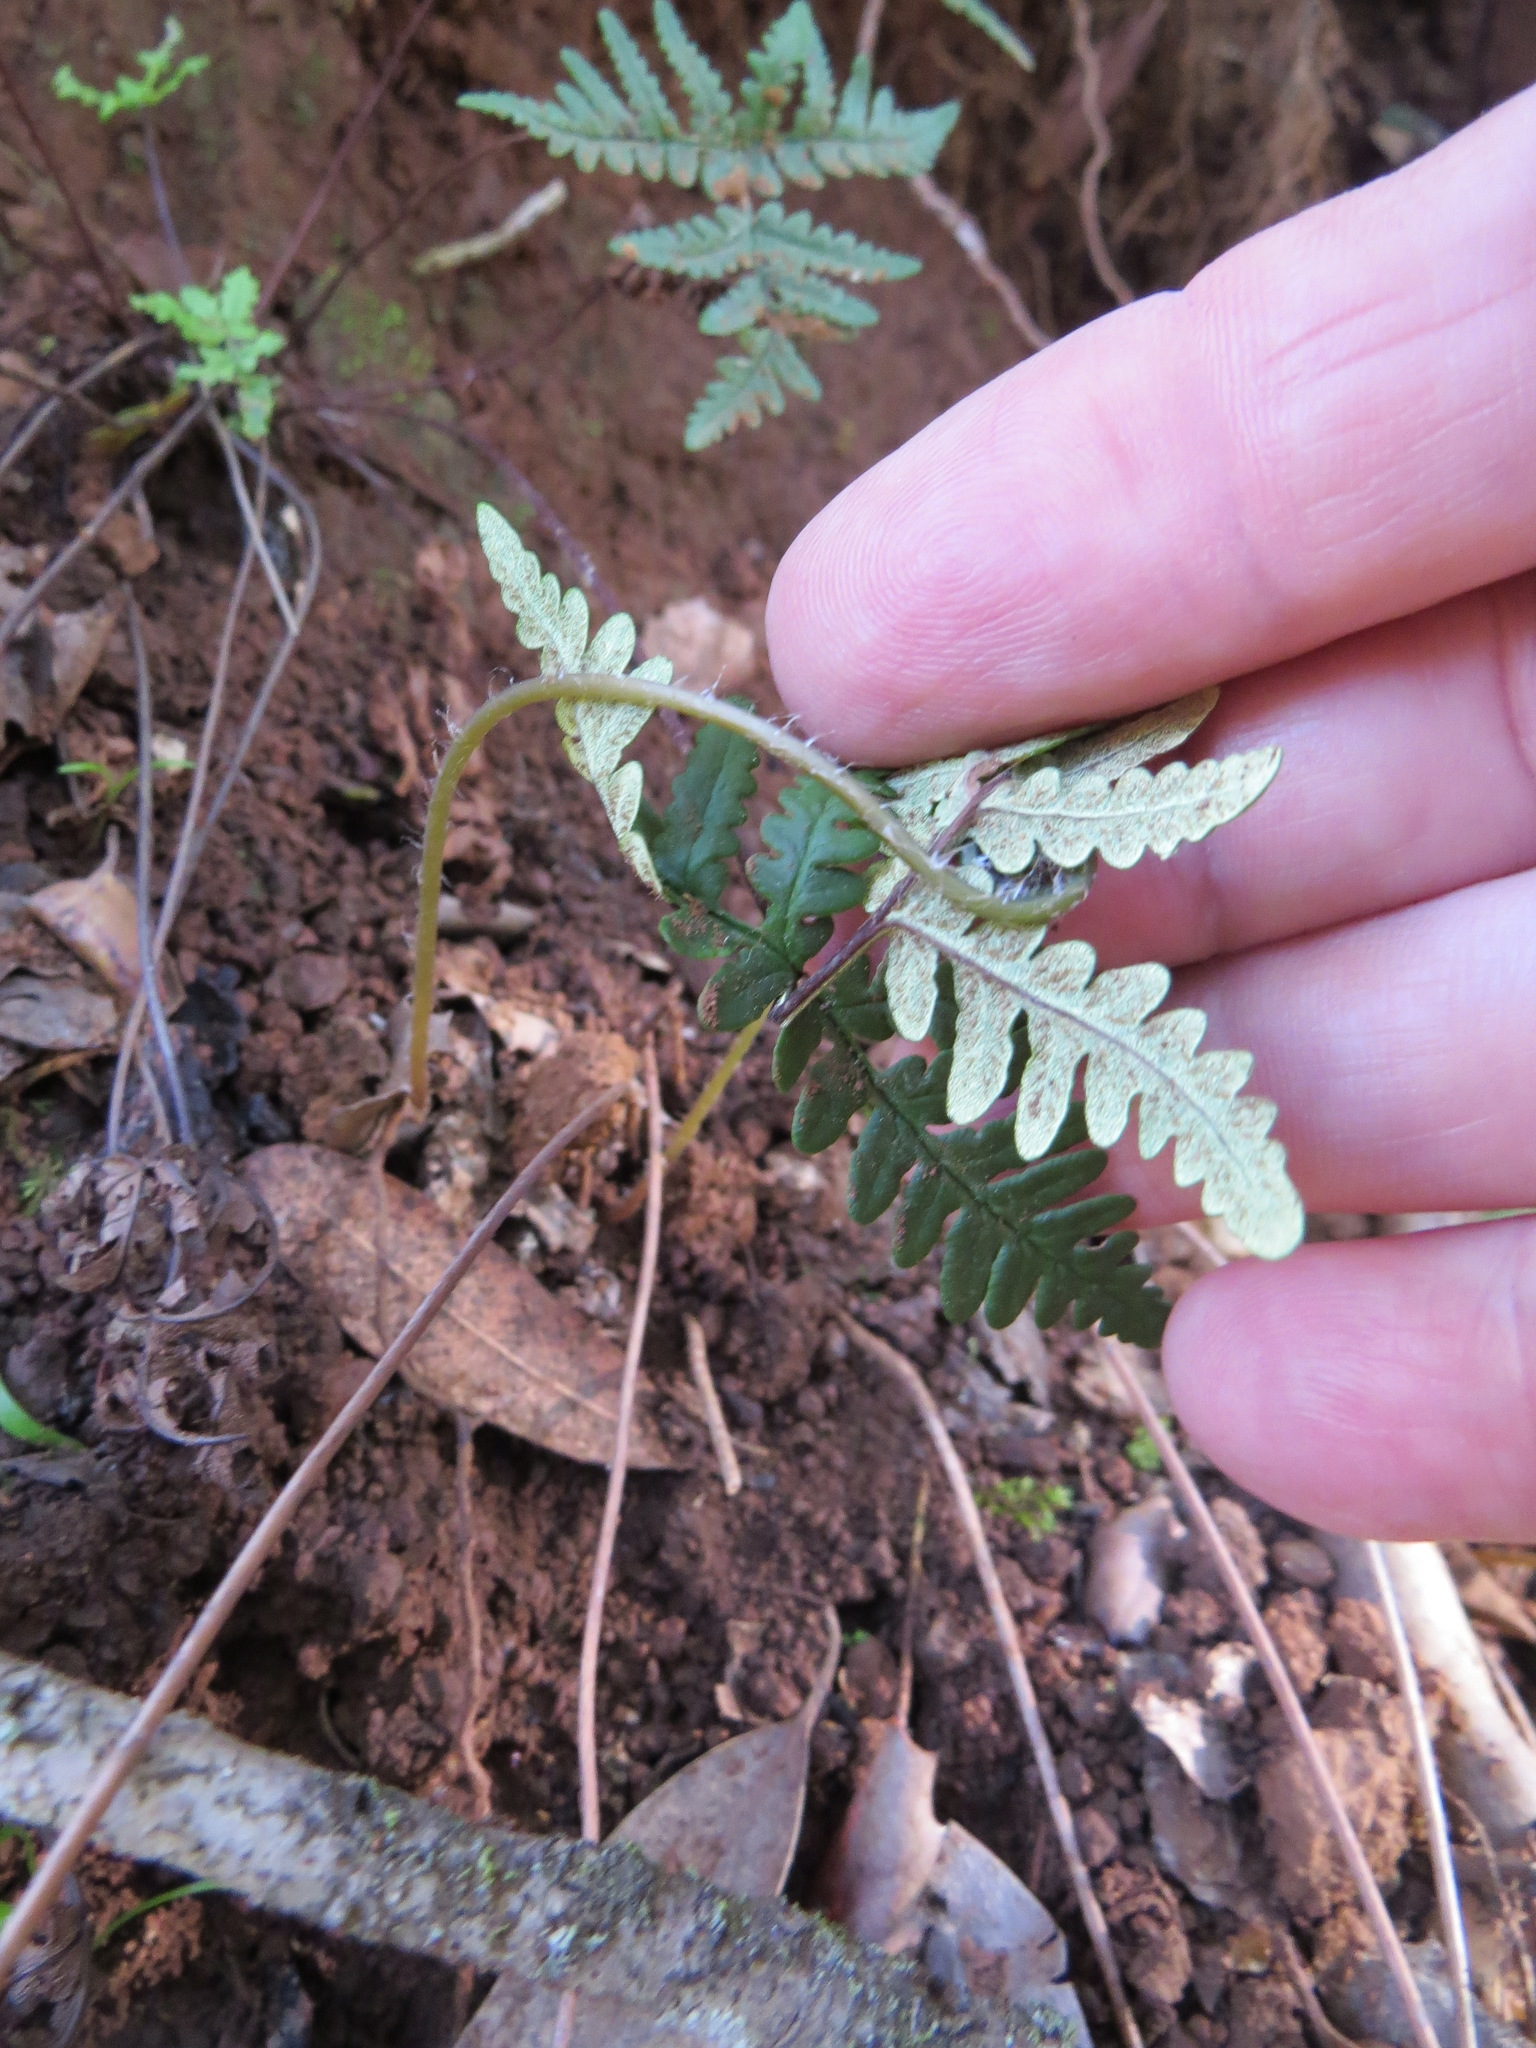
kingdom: Plantae
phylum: Tracheophyta
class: Polypodiopsida
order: Polypodiales
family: Pteridaceae
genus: Pentagramma
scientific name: Pentagramma triangularis
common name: Gold fern
